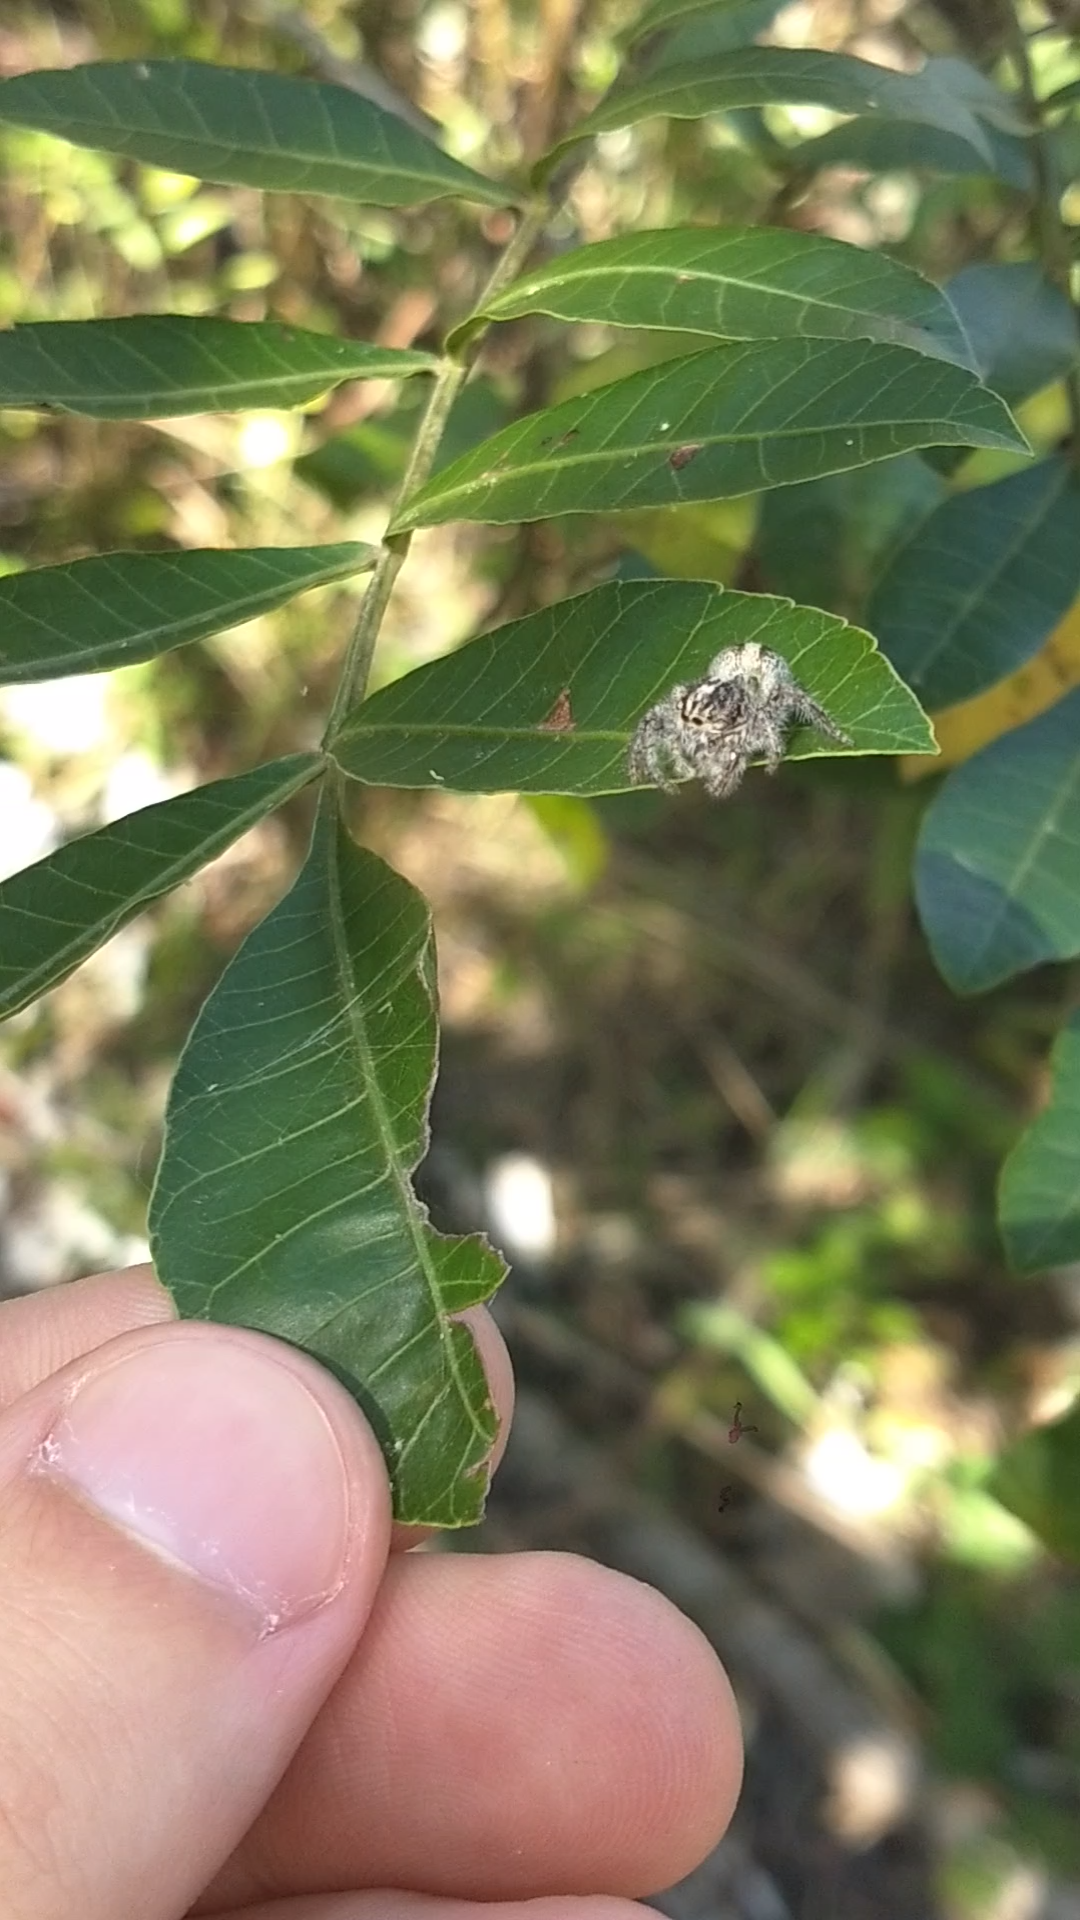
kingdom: Animalia
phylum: Arthropoda
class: Arachnida
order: Araneae
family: Salticidae
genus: Megafreya
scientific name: Megafreya sutrix
